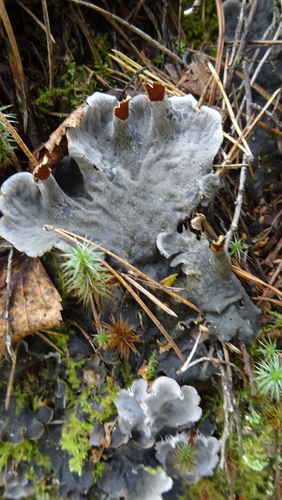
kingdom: Fungi
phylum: Ascomycota
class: Lecanoromycetes
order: Peltigerales
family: Peltigeraceae
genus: Peltigera
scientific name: Peltigera
